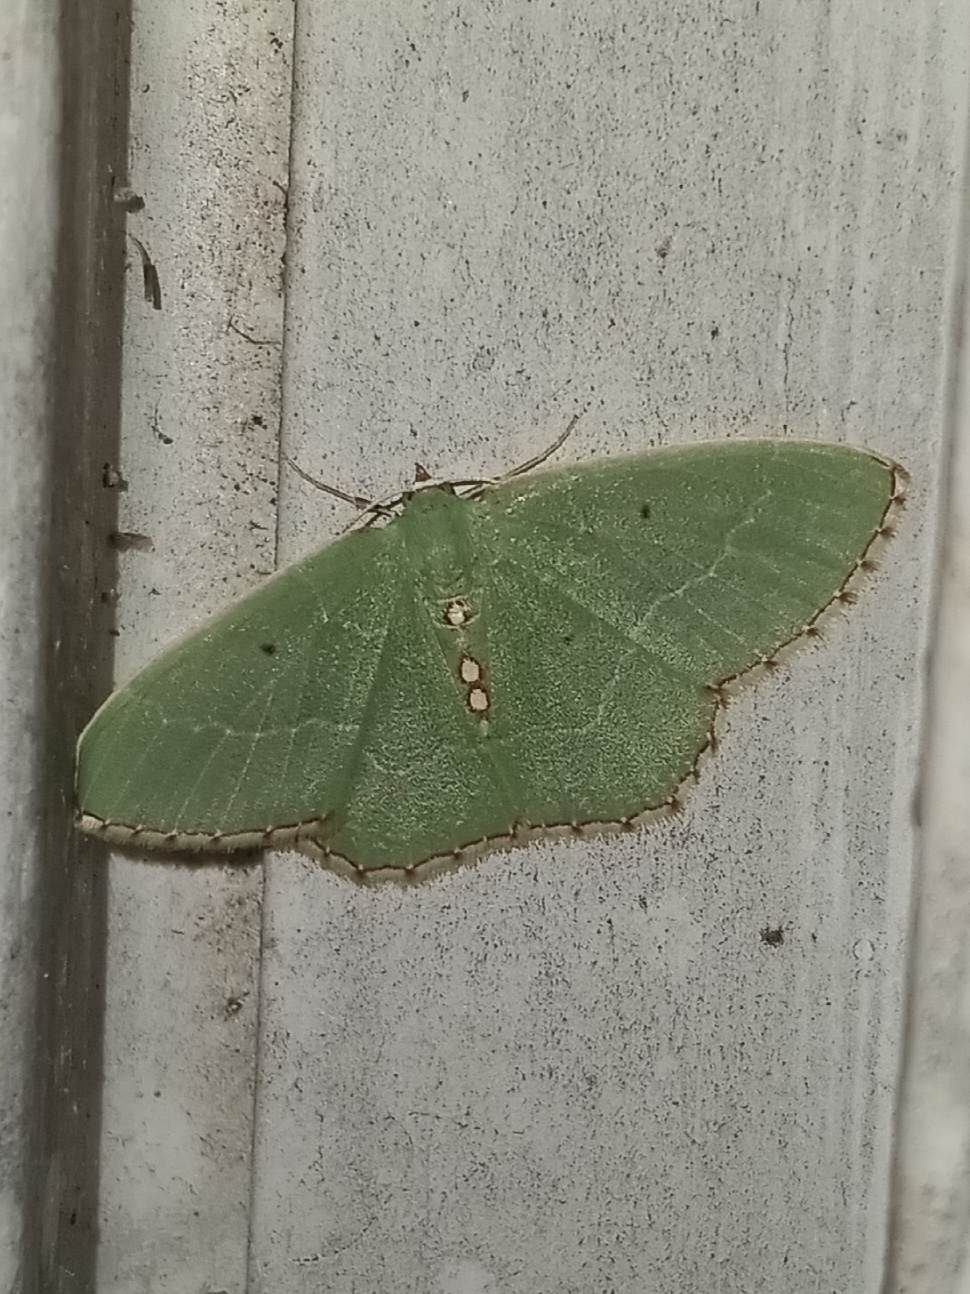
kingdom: Animalia
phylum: Arthropoda
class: Insecta
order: Lepidoptera
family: Geometridae
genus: Nemoria
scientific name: Nemoria lixaria
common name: Red-bordered emerald
